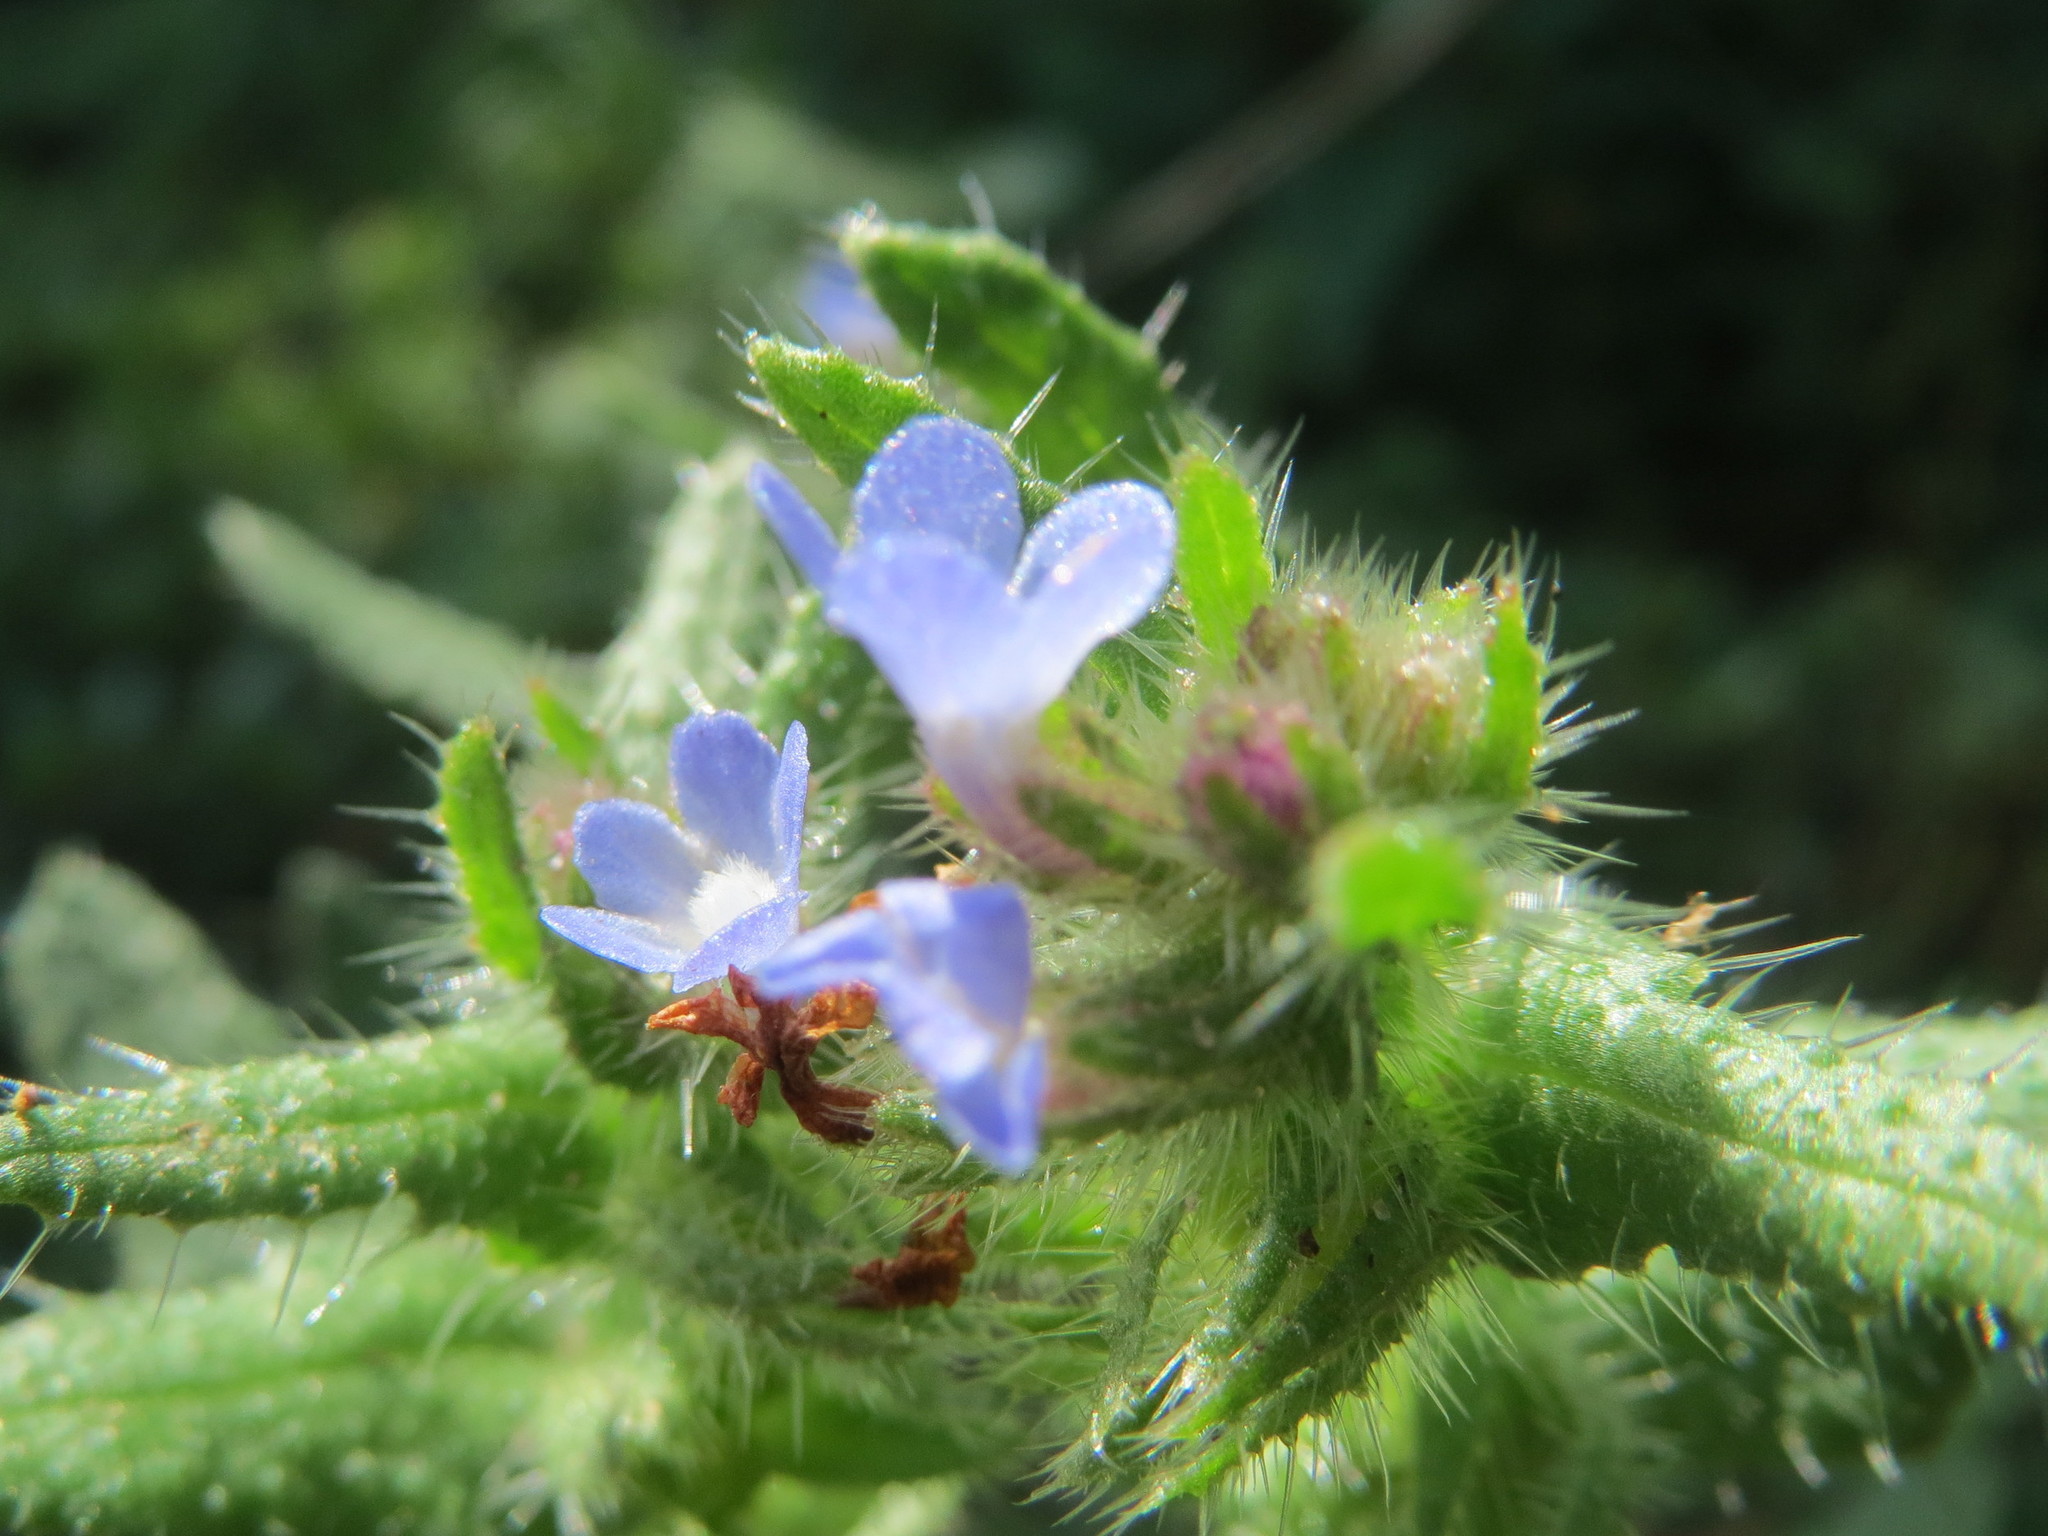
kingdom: Plantae
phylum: Tracheophyta
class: Magnoliopsida
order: Boraginales
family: Boraginaceae
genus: Lycopsis
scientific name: Lycopsis arvensis
